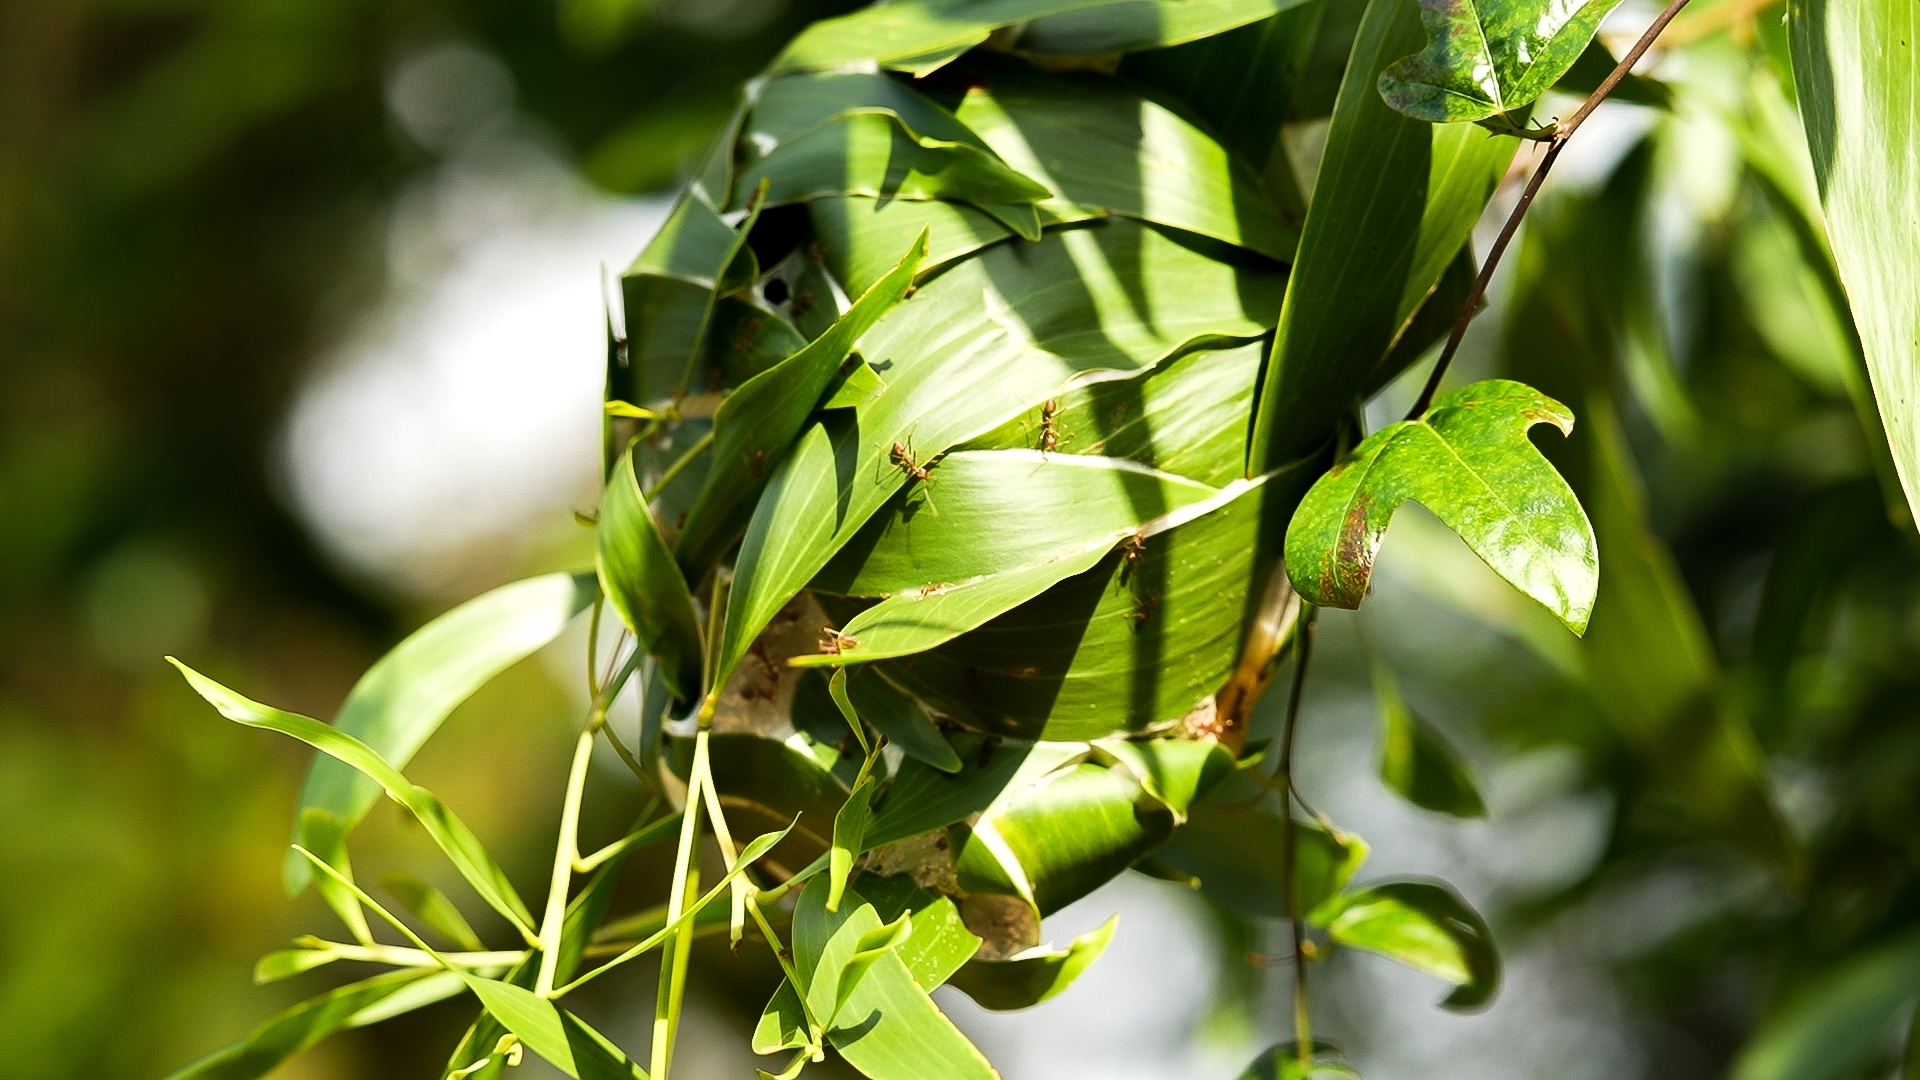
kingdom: Animalia
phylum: Arthropoda
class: Insecta
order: Hymenoptera
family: Formicidae
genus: Oecophylla
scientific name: Oecophylla smaragdina
